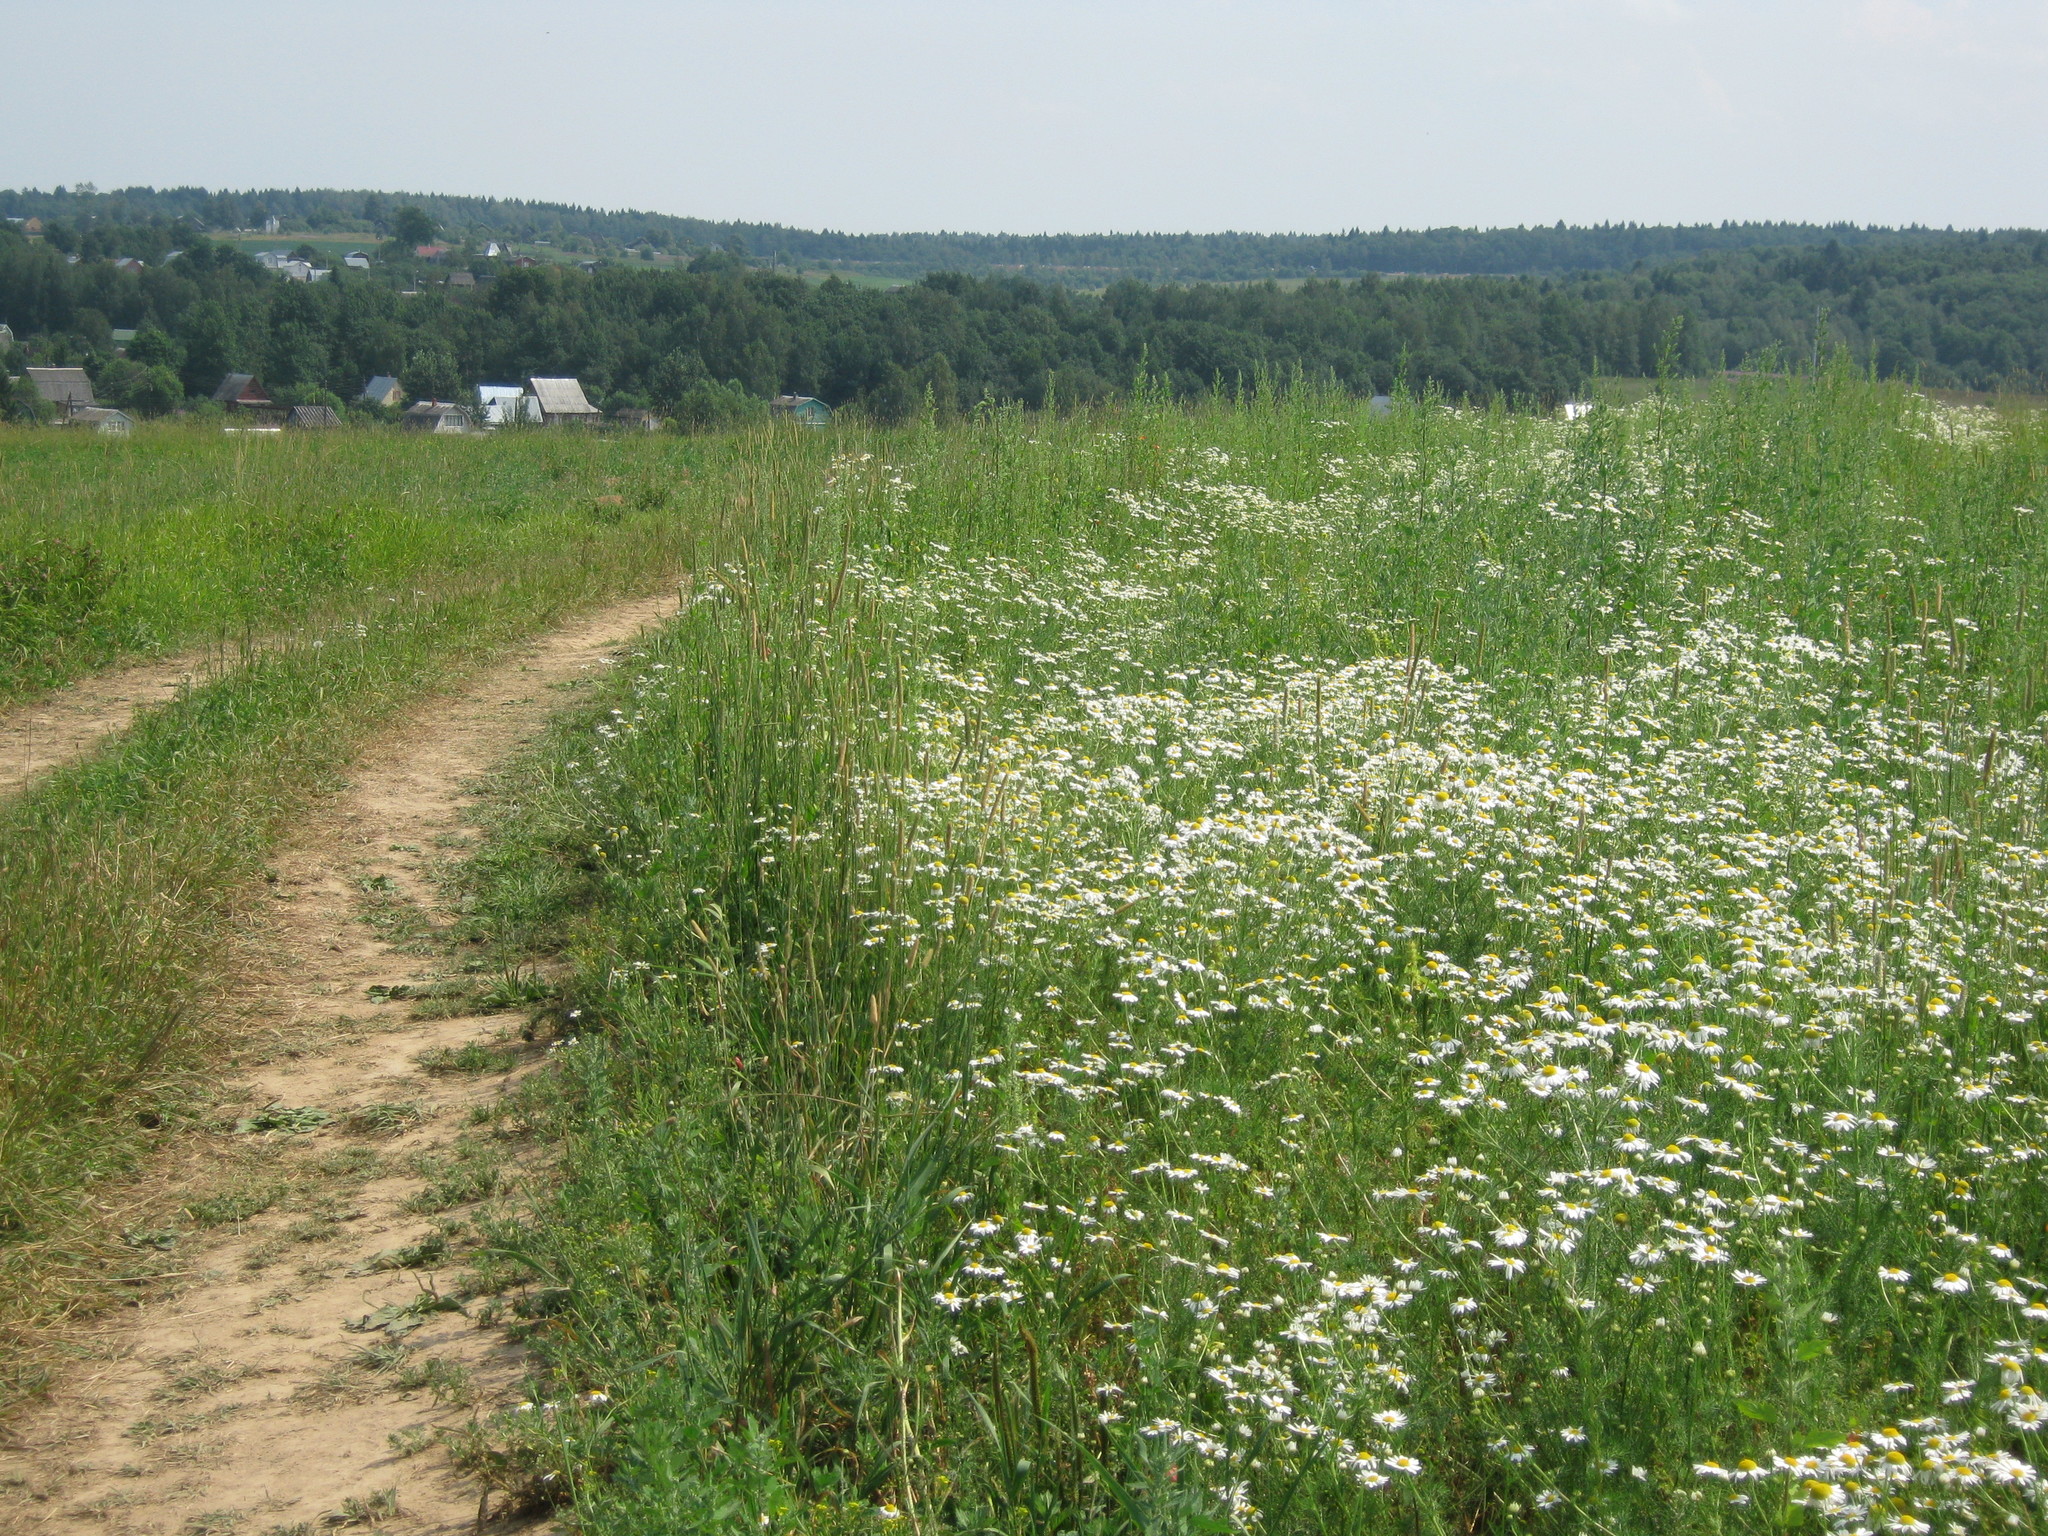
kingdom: Plantae
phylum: Tracheophyta
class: Magnoliopsida
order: Asterales
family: Asteraceae
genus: Tripleurospermum
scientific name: Tripleurospermum inodorum
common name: Scentless mayweed
